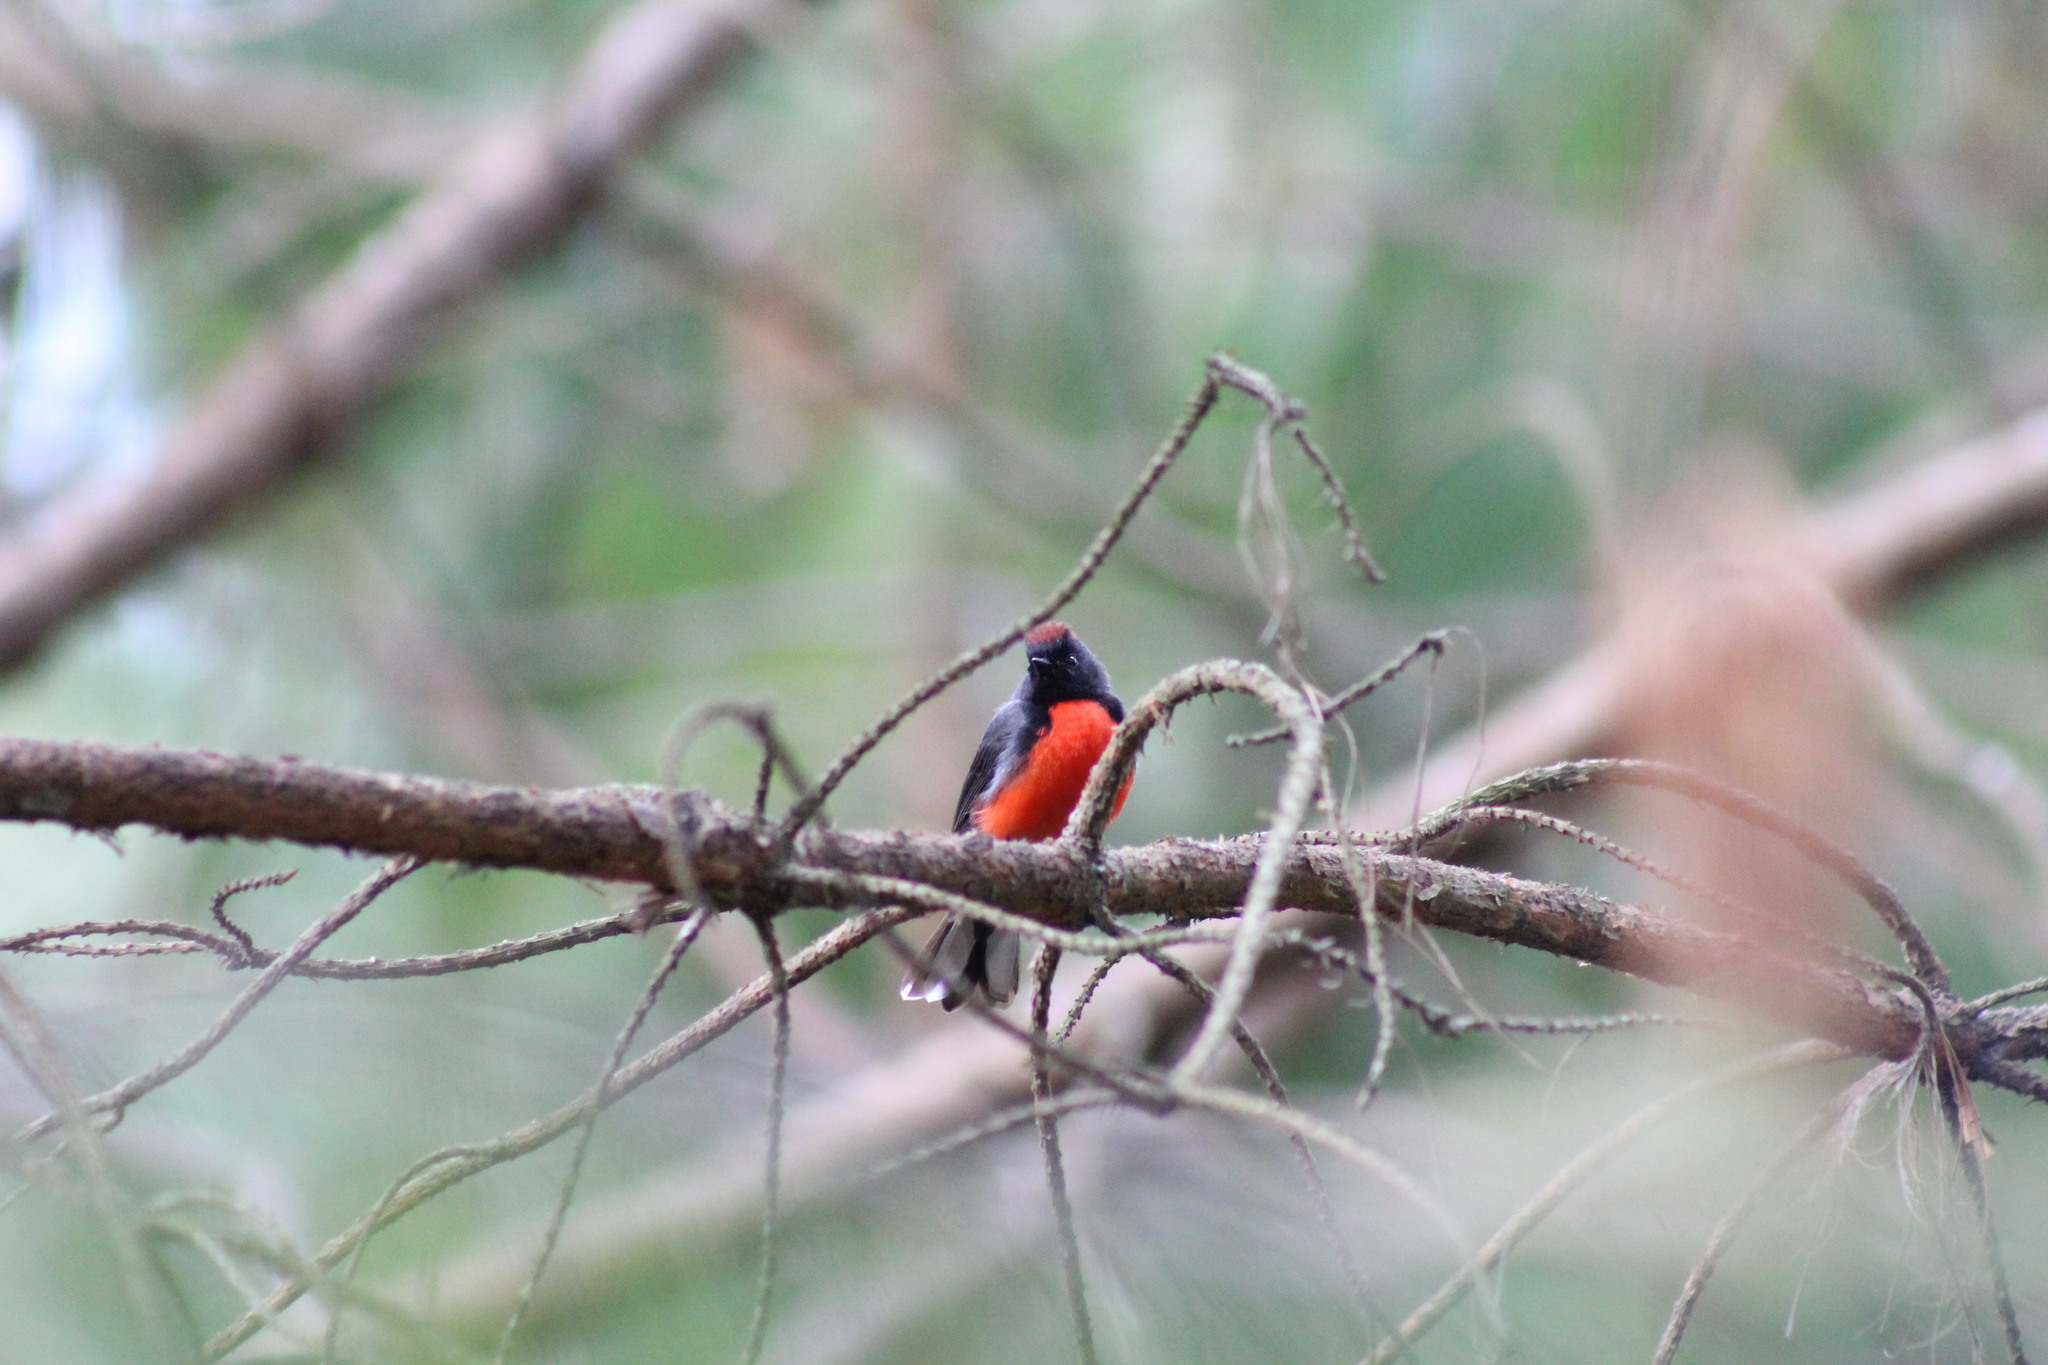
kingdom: Animalia
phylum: Chordata
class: Aves
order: Passeriformes
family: Parulidae
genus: Myioborus
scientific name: Myioborus miniatus
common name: Slate-throated redstart
